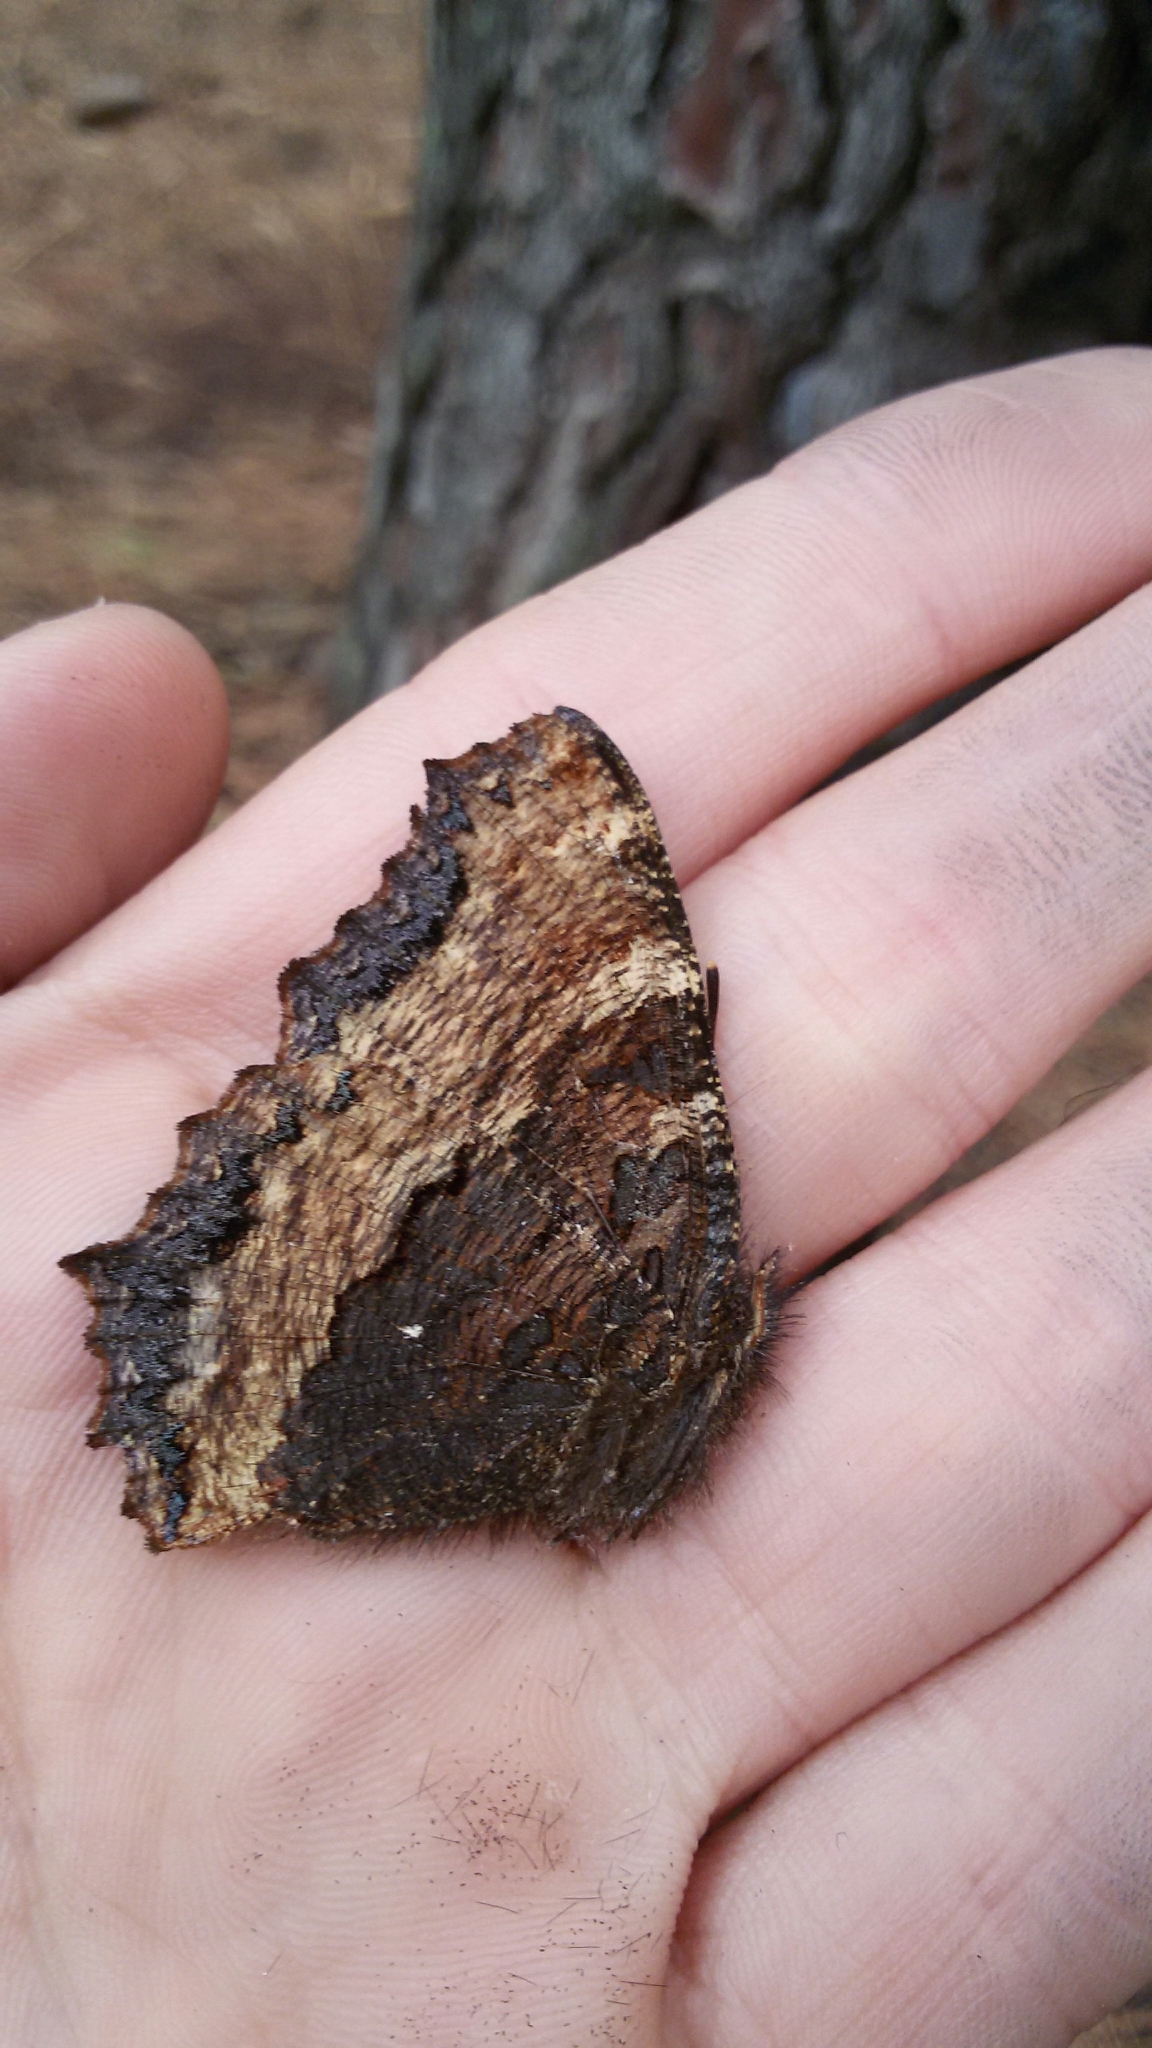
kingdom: Animalia
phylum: Arthropoda
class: Insecta
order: Lepidoptera
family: Nymphalidae
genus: Nymphalis
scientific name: Nymphalis polychloros
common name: Large tortoiseshell
